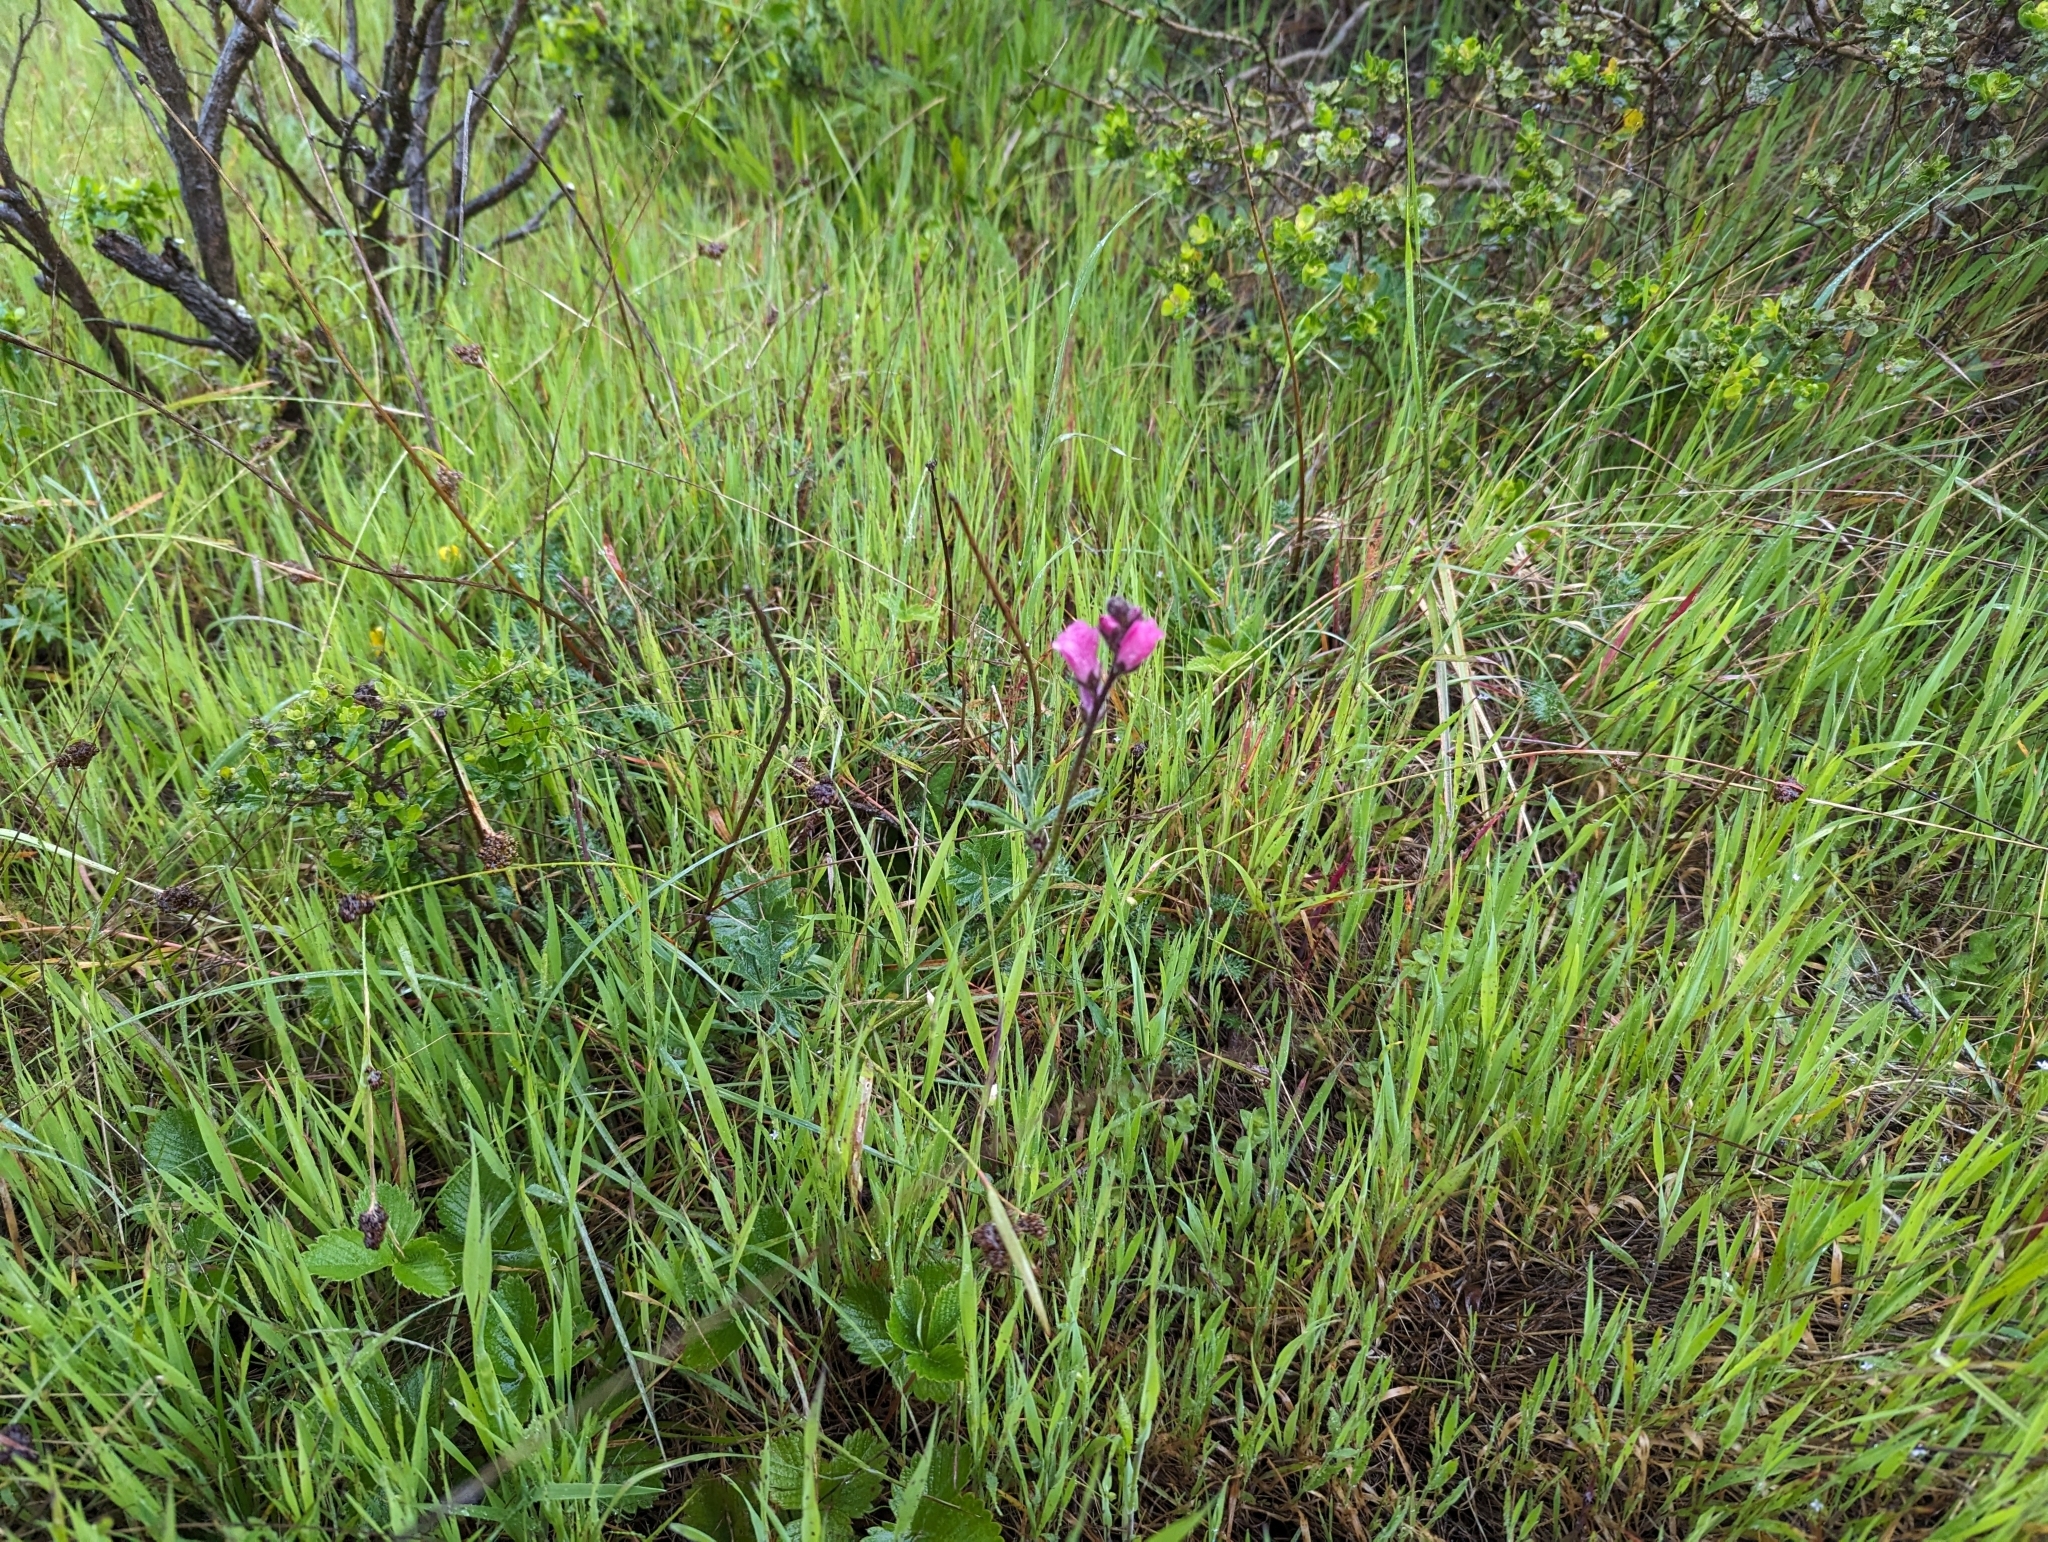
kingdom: Plantae
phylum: Tracheophyta
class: Magnoliopsida
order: Malvales
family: Malvaceae
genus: Sidalcea
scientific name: Sidalcea malviflora
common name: Greek mallow
